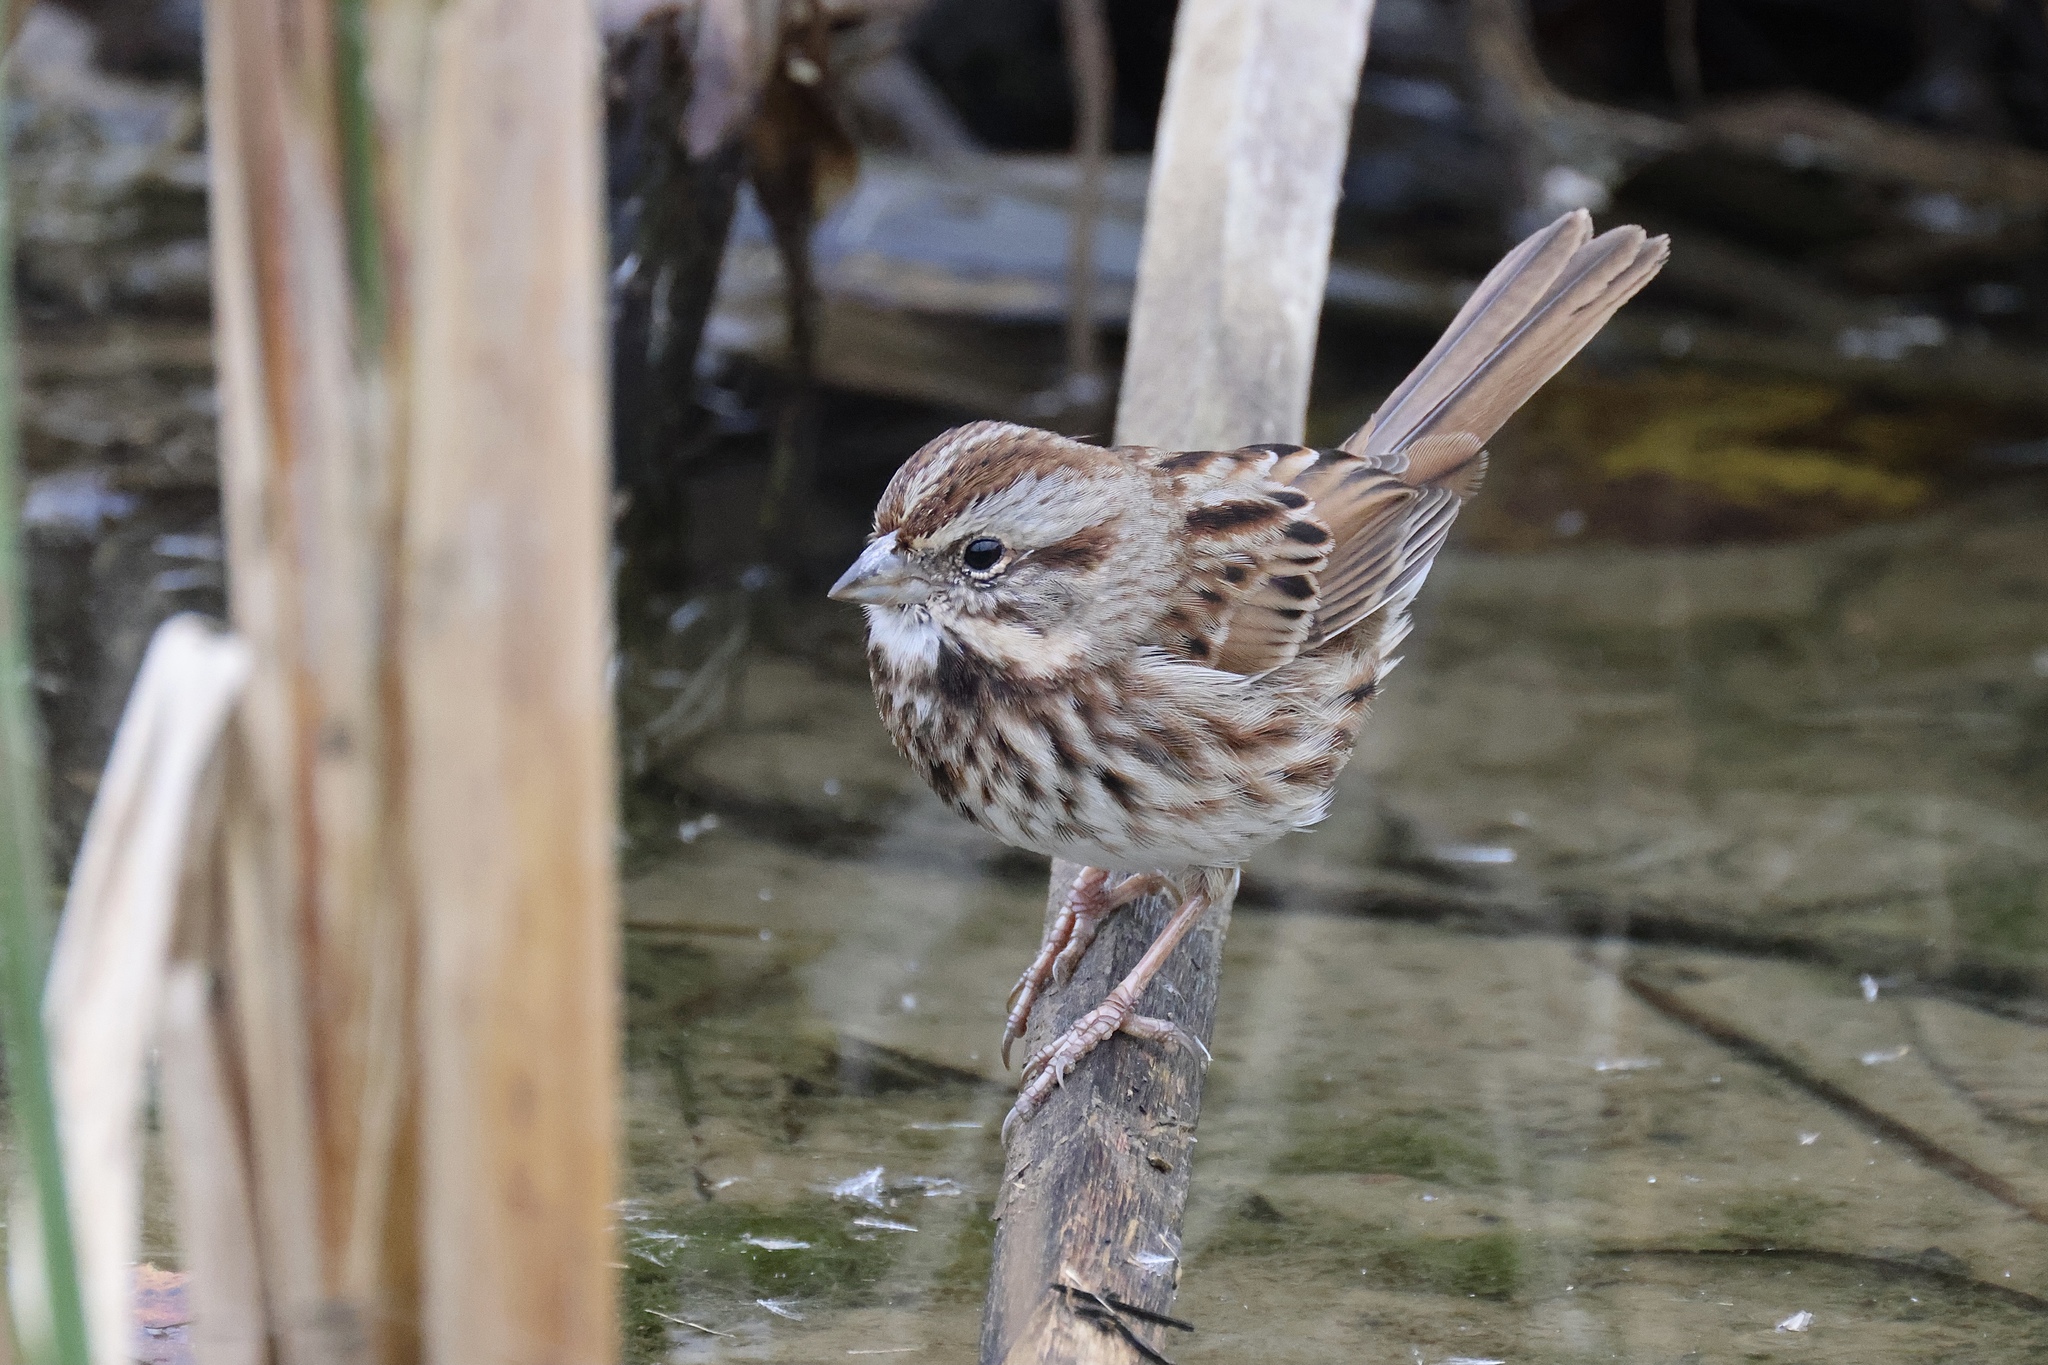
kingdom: Animalia
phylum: Chordata
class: Aves
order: Passeriformes
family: Passerellidae
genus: Melospiza
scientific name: Melospiza melodia
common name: Song sparrow
